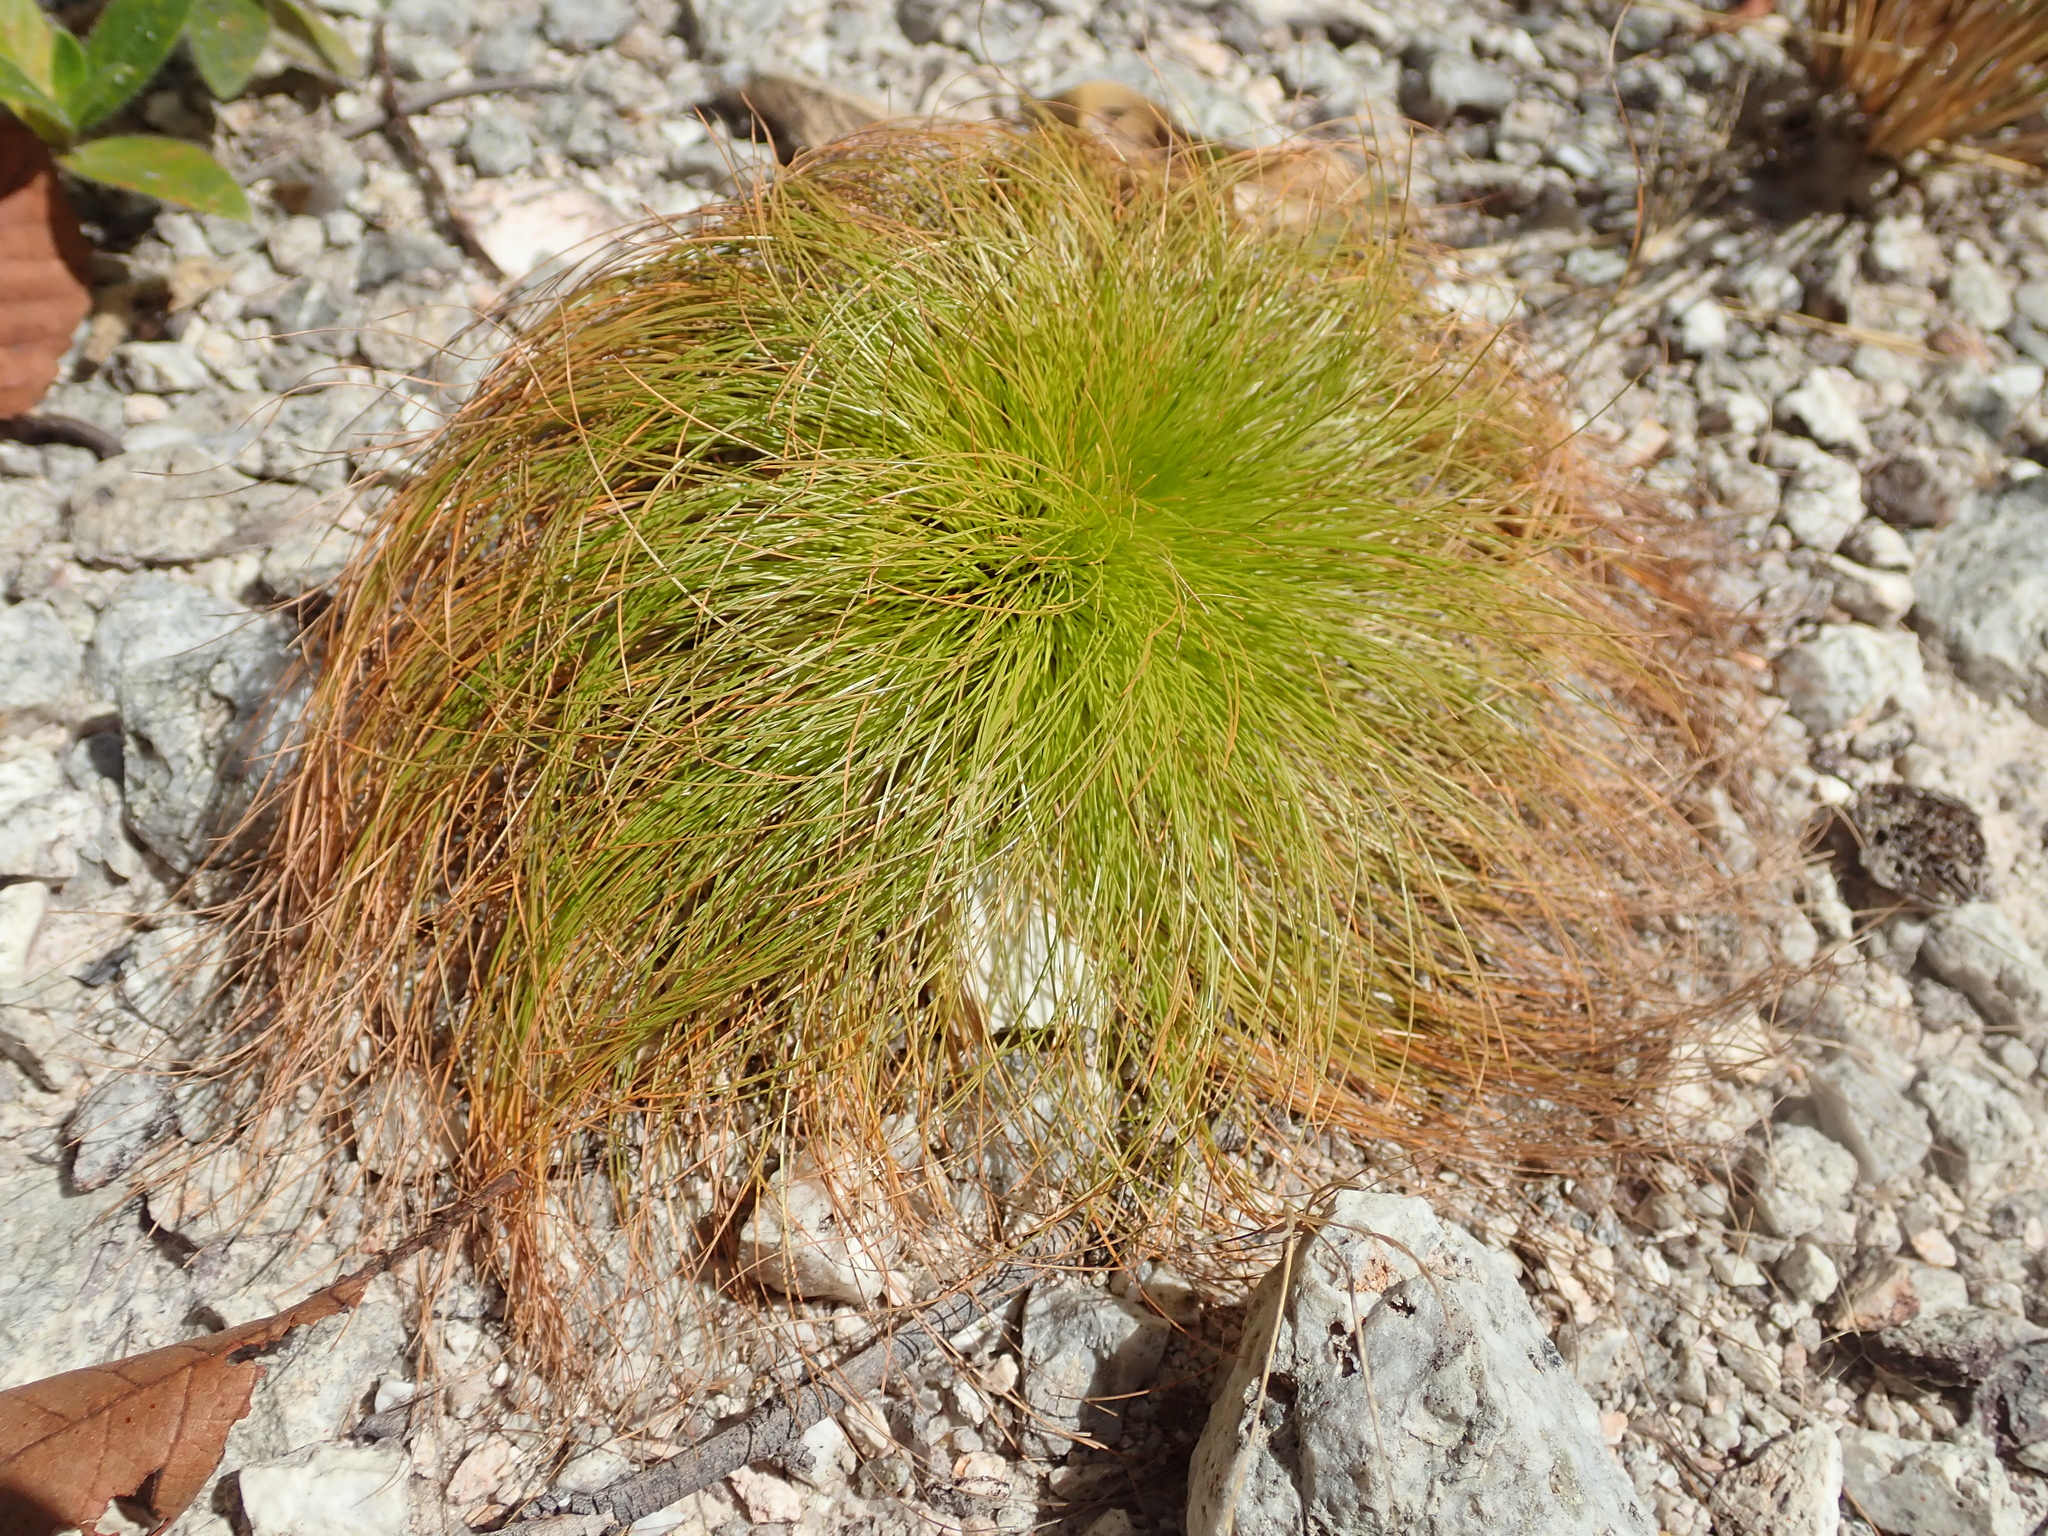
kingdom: Plantae
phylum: Tracheophyta
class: Liliopsida
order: Poales
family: Cyperaceae
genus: Bulbostylis
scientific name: Bulbostylis paradoxa
